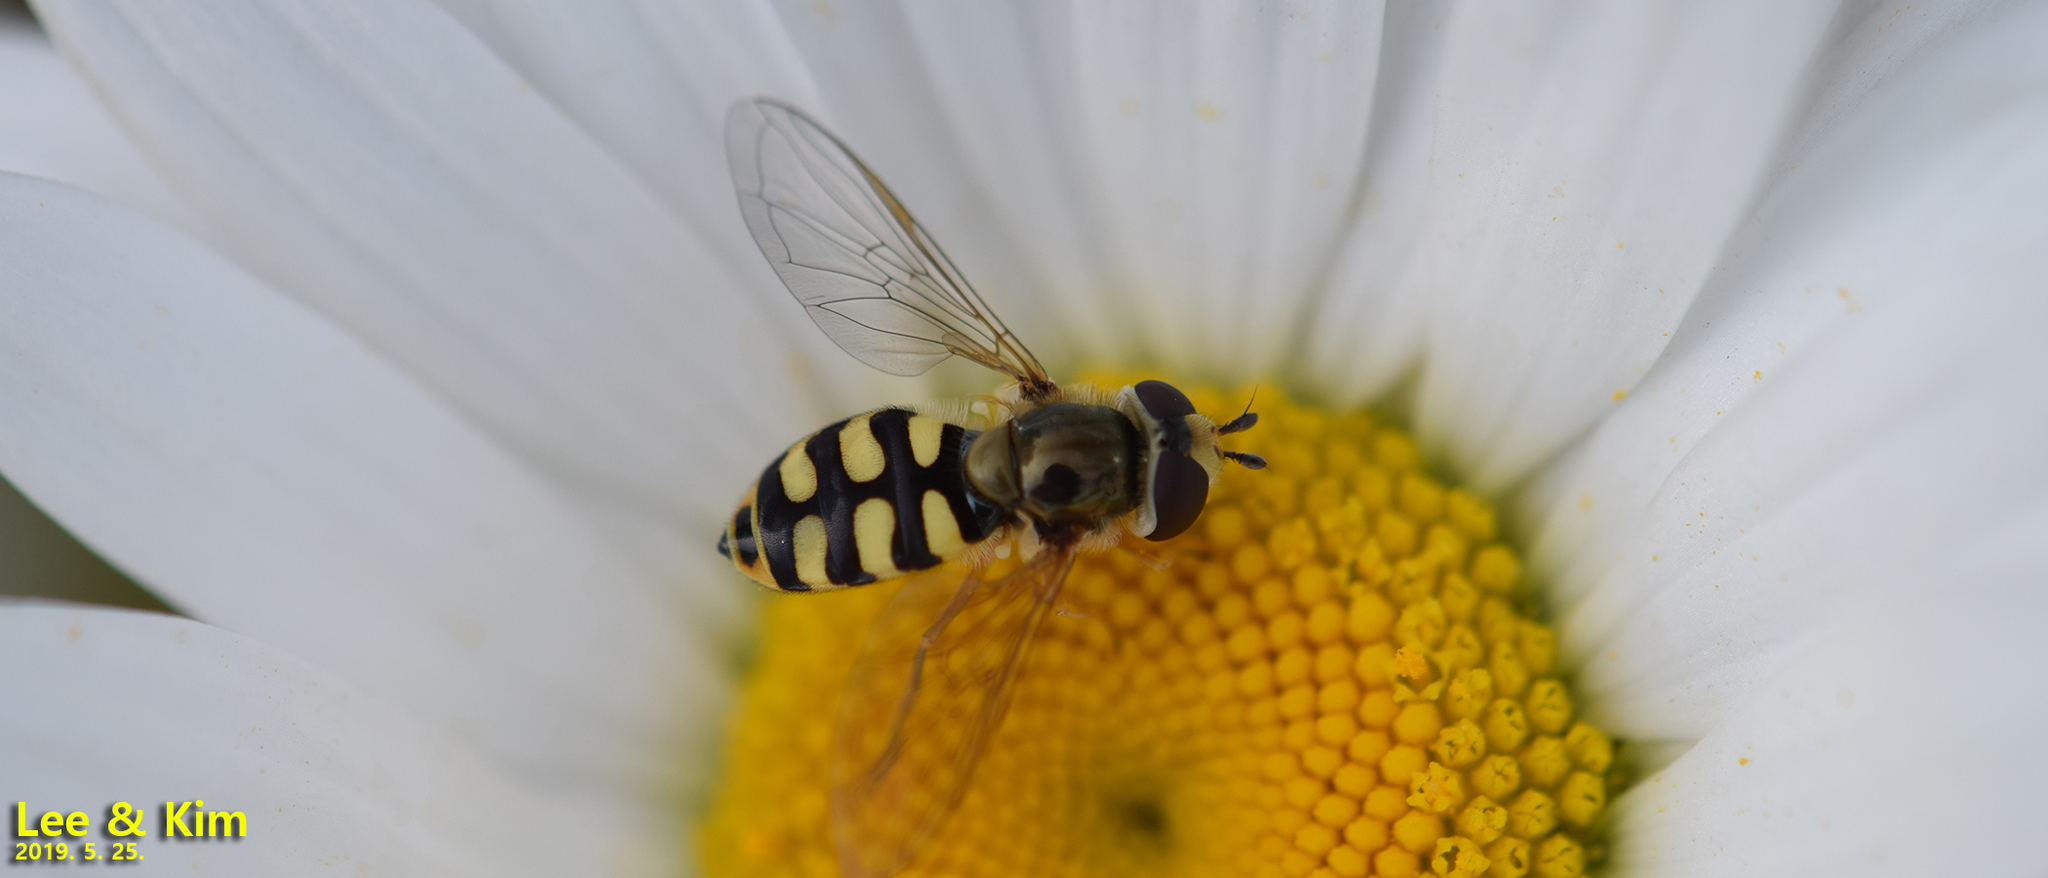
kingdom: Animalia
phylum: Arthropoda
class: Insecta
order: Diptera
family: Syrphidae
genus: Eupeodes
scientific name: Eupeodes corollae
